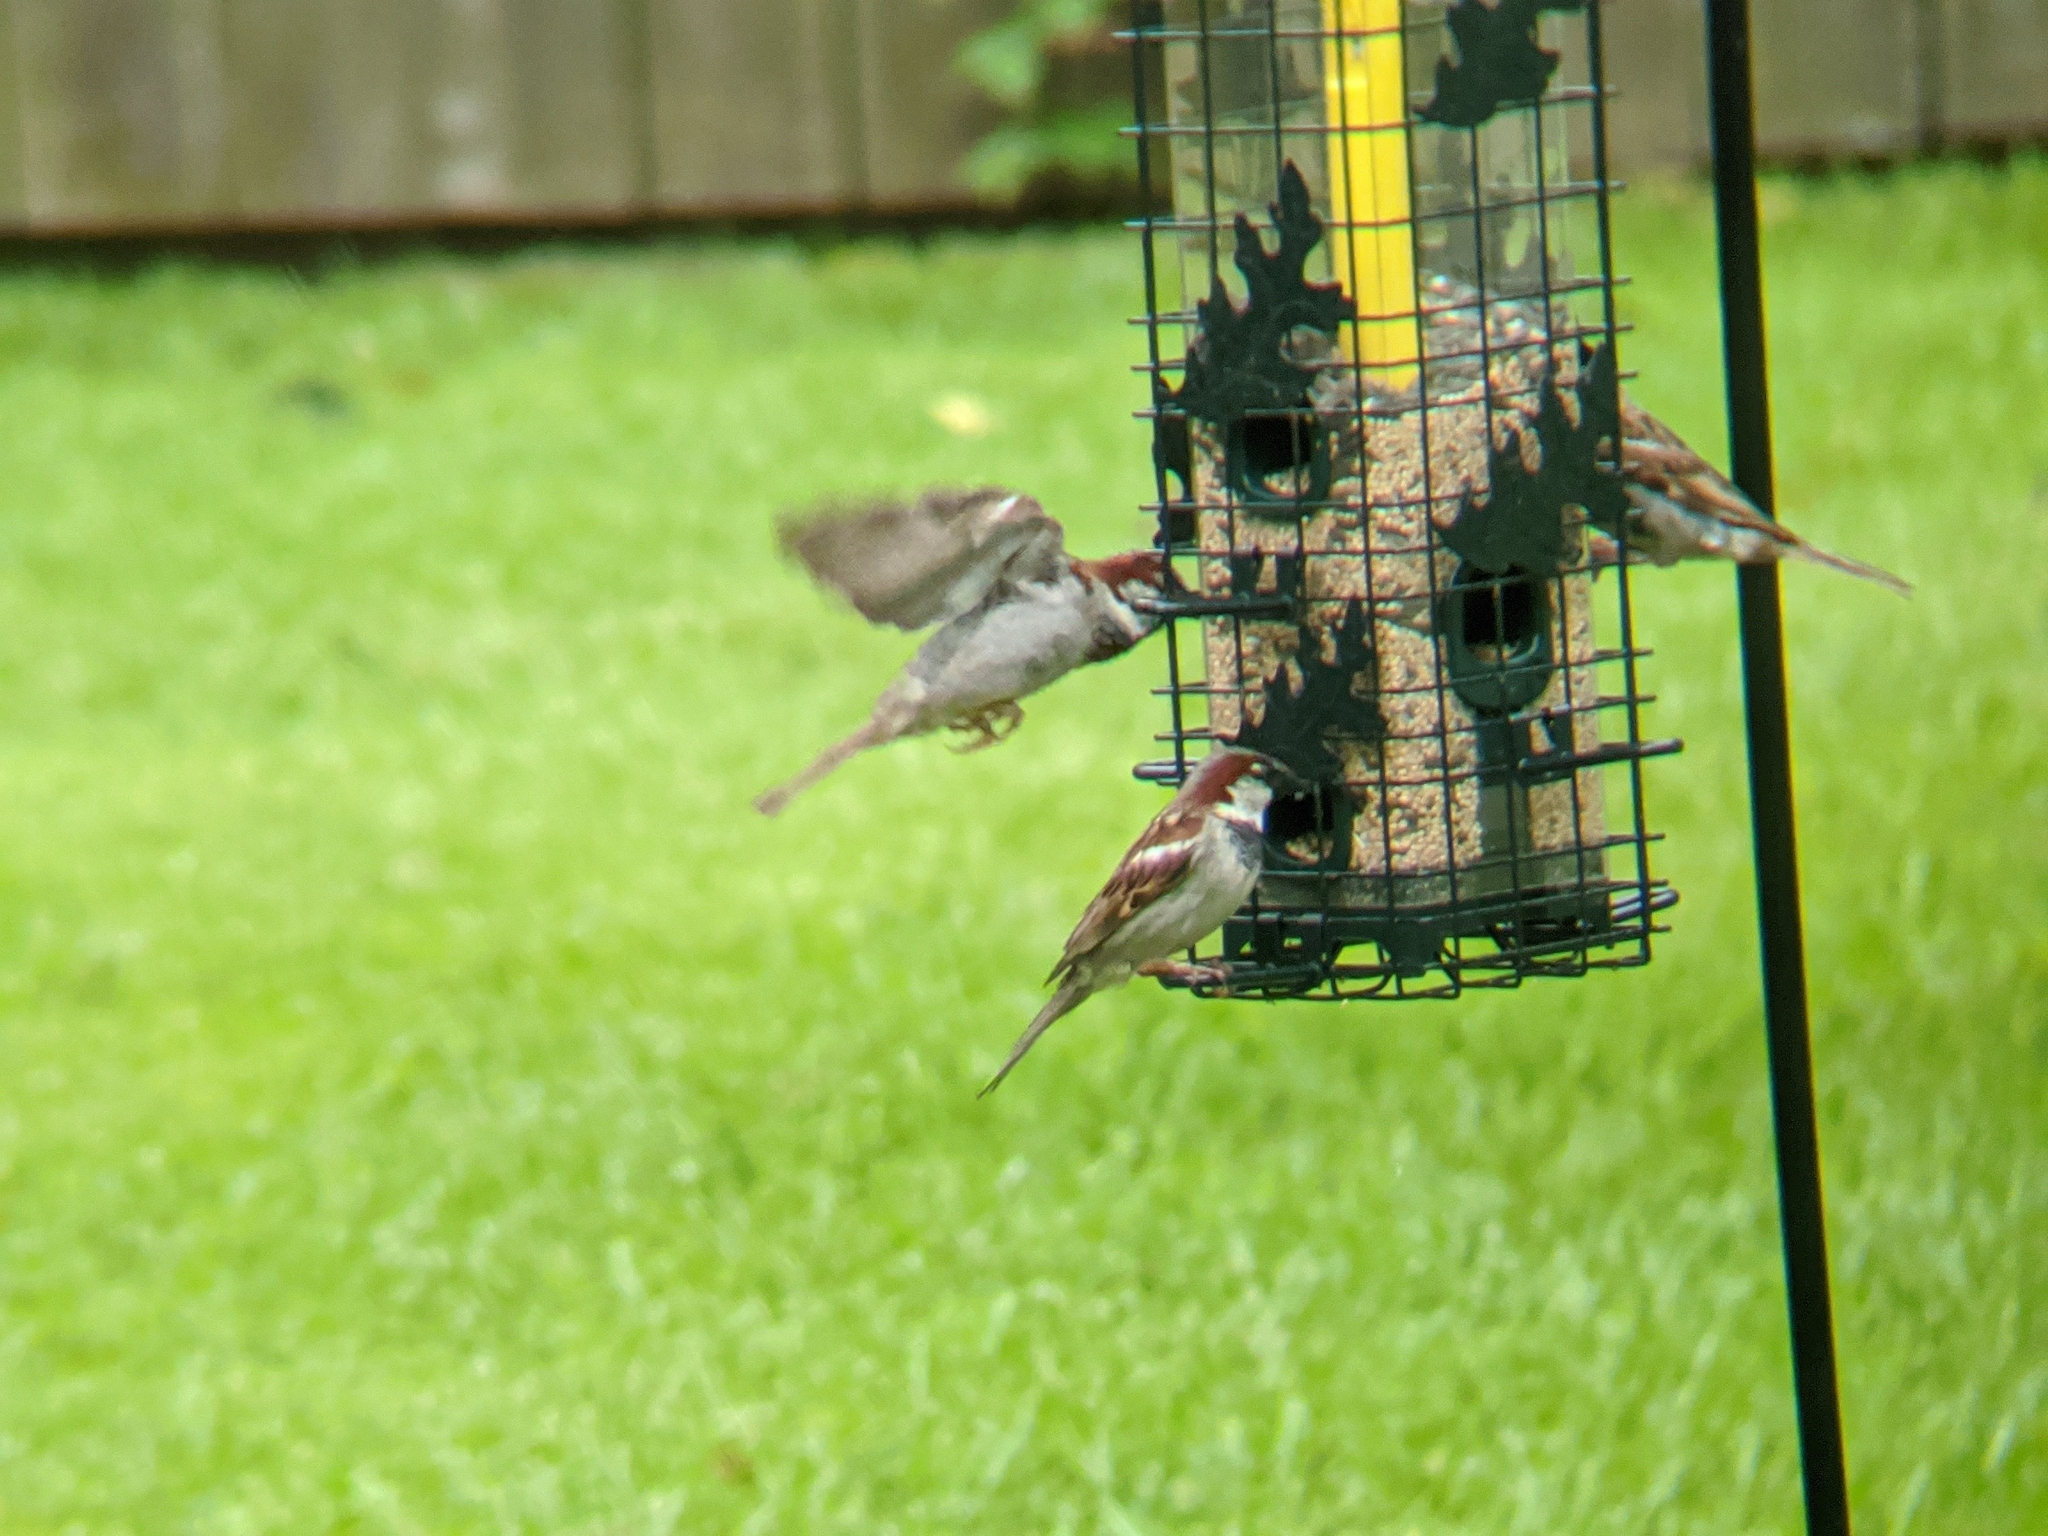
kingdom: Animalia
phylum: Chordata
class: Aves
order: Passeriformes
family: Passeridae
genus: Passer
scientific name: Passer domesticus
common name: House sparrow
